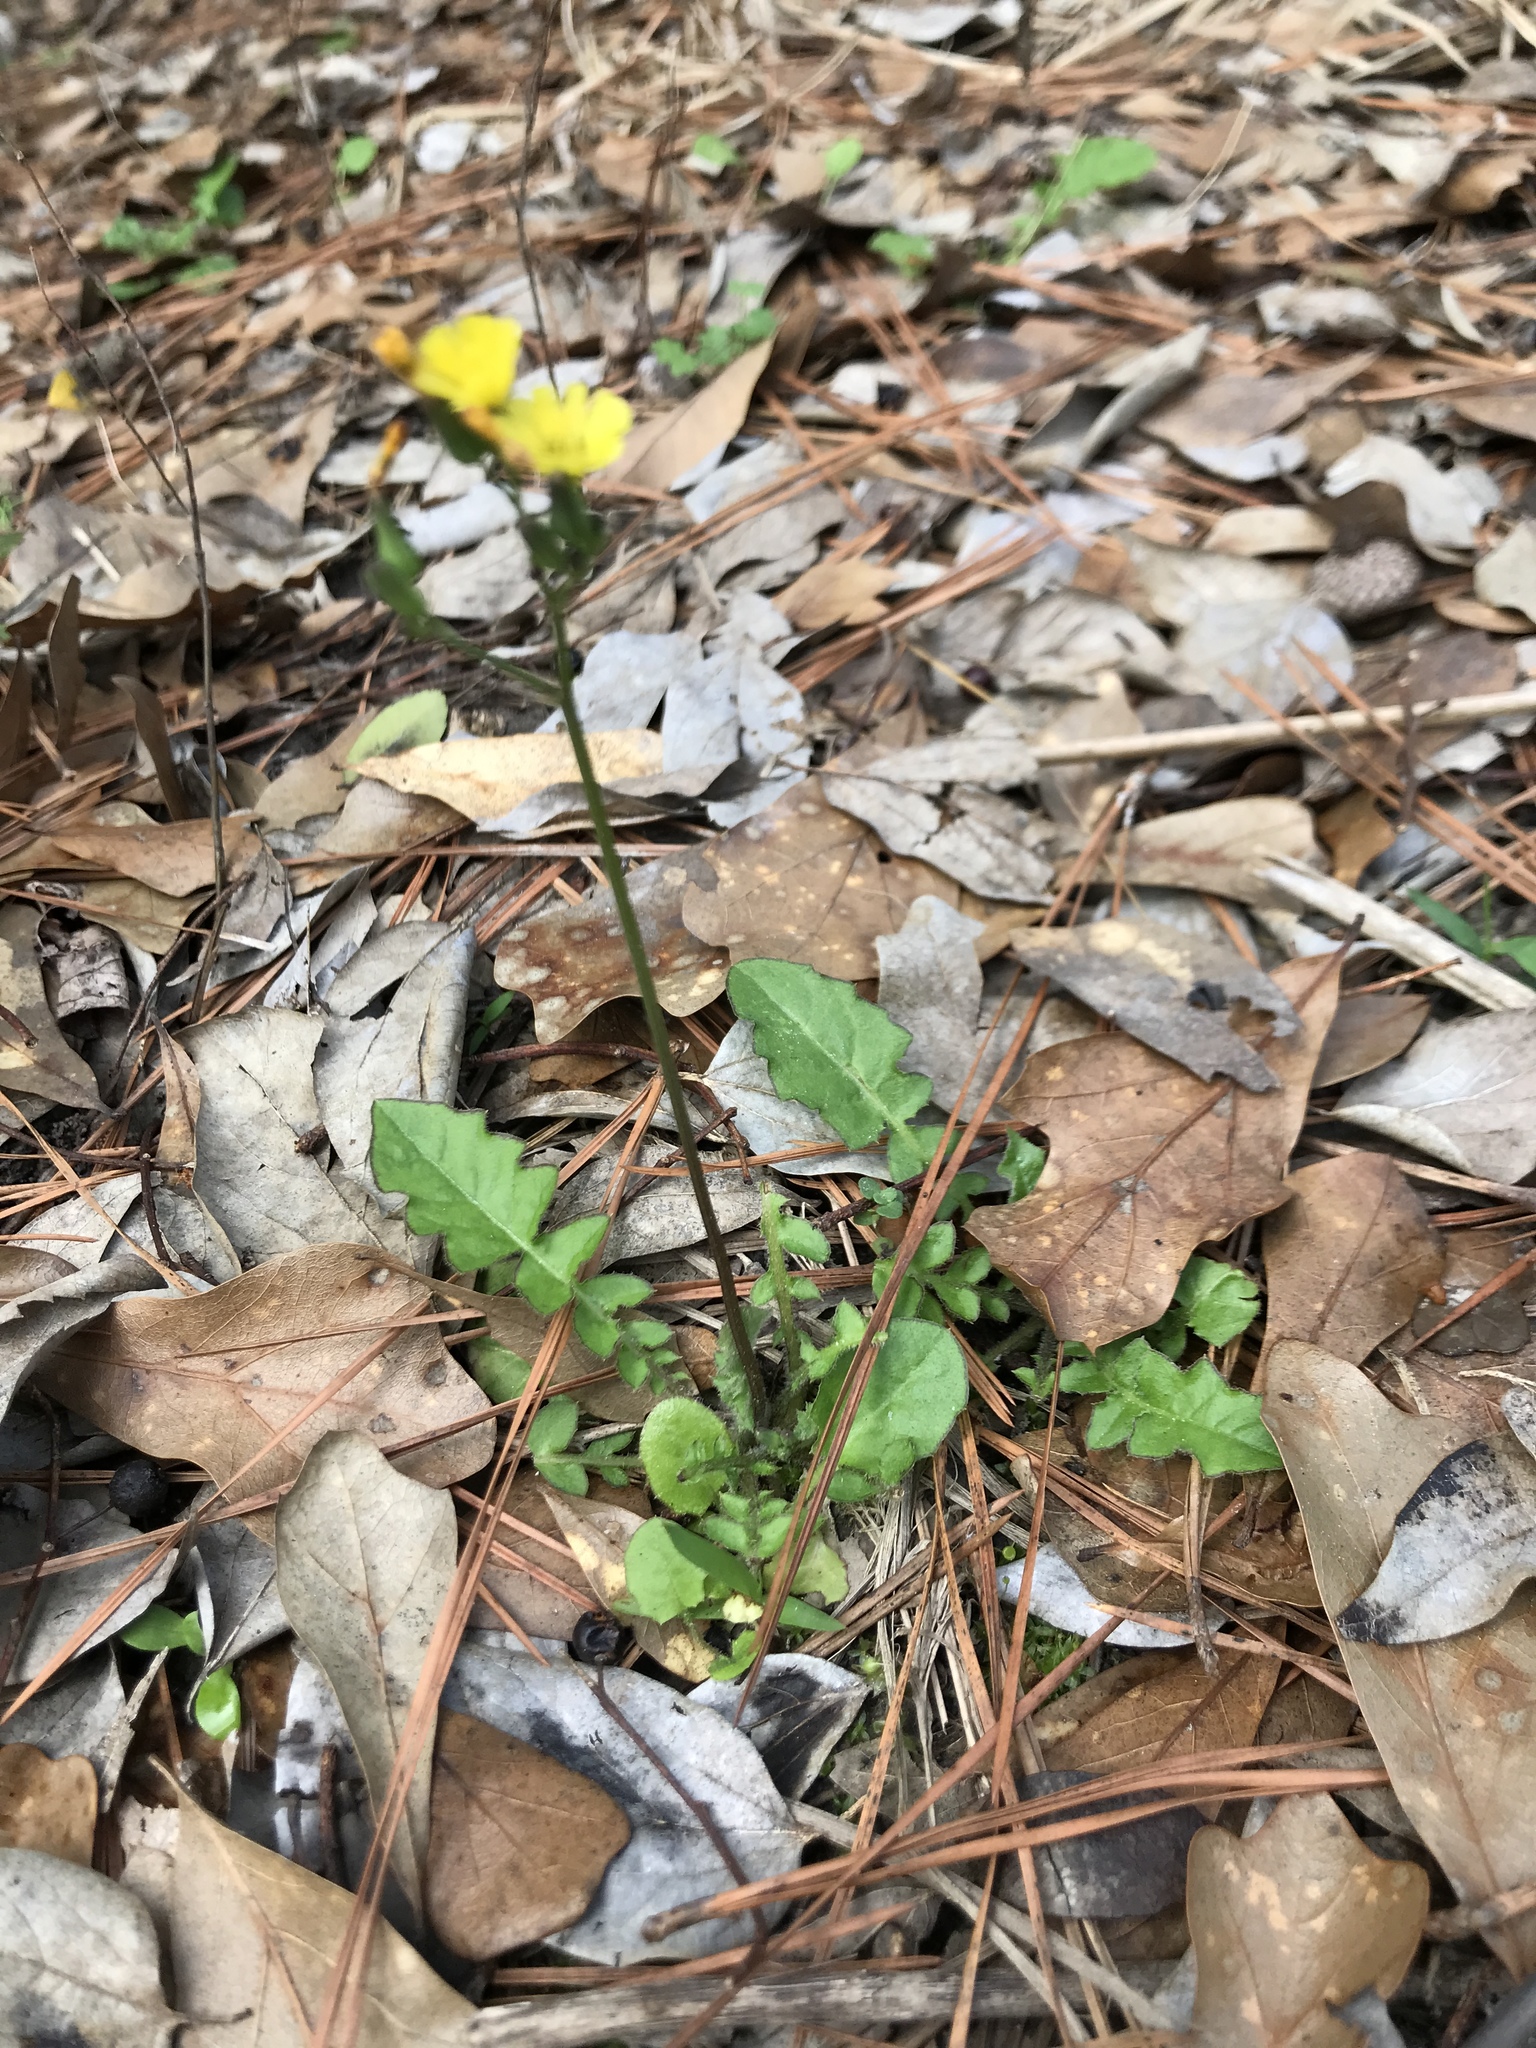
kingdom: Plantae
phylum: Tracheophyta
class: Magnoliopsida
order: Asterales
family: Asteraceae
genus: Youngia
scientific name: Youngia japonica
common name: Oriental false hawksbeard
